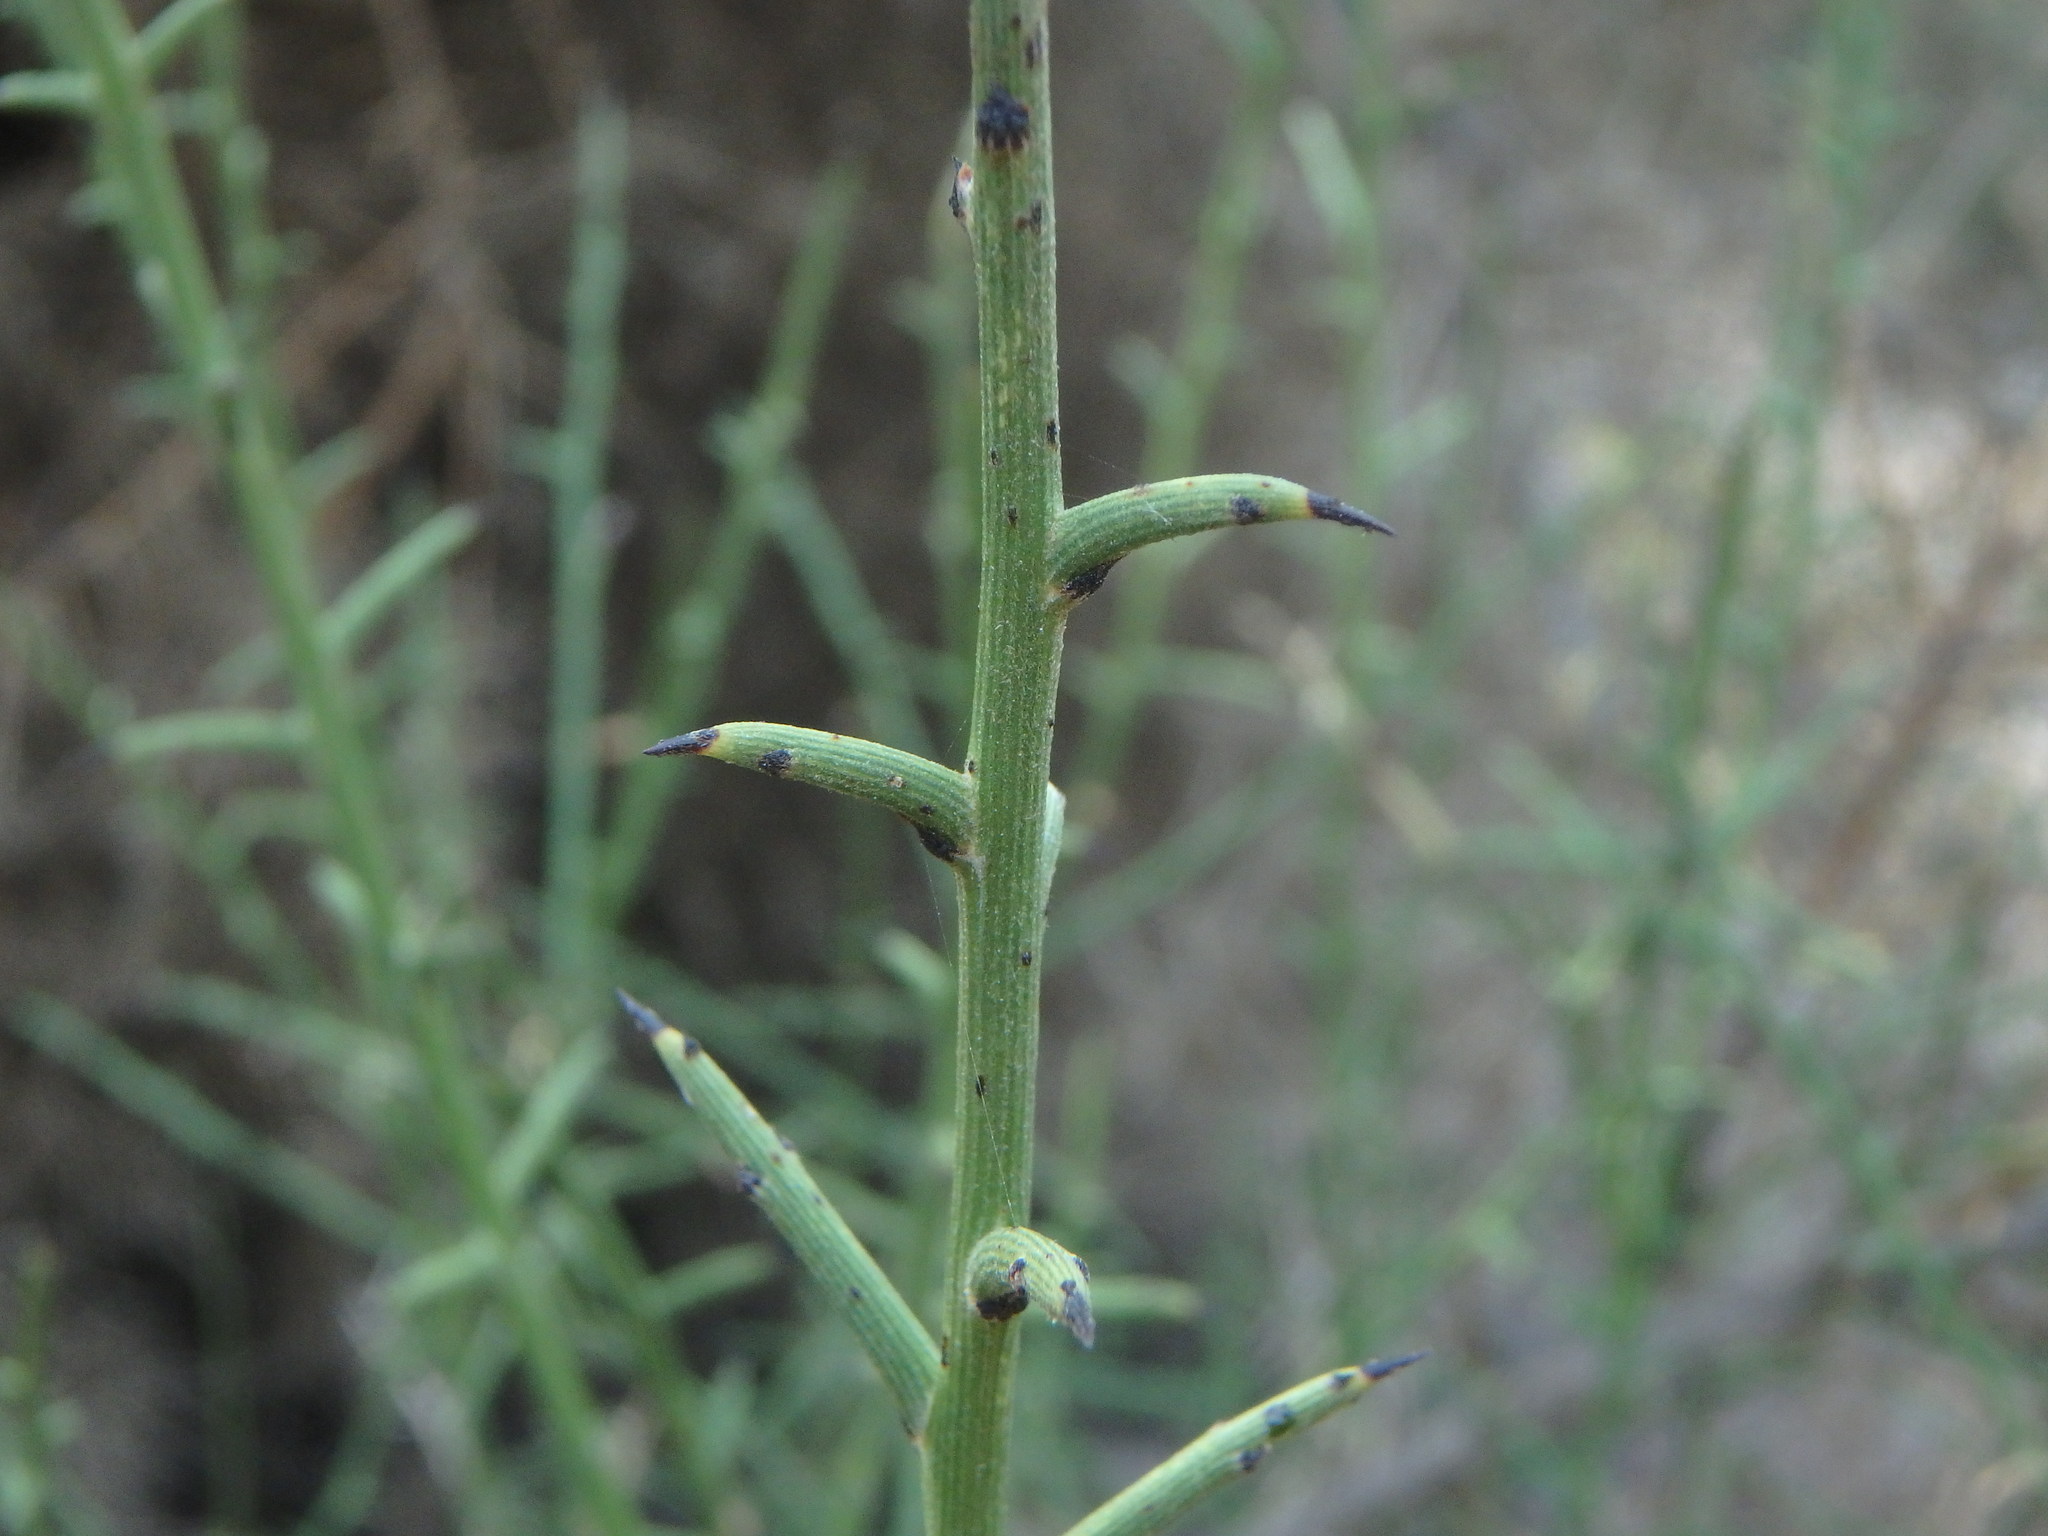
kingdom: Plantae
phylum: Tracheophyta
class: Magnoliopsida
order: Fabales
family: Fabaceae
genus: Genista
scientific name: Genista fasselata
